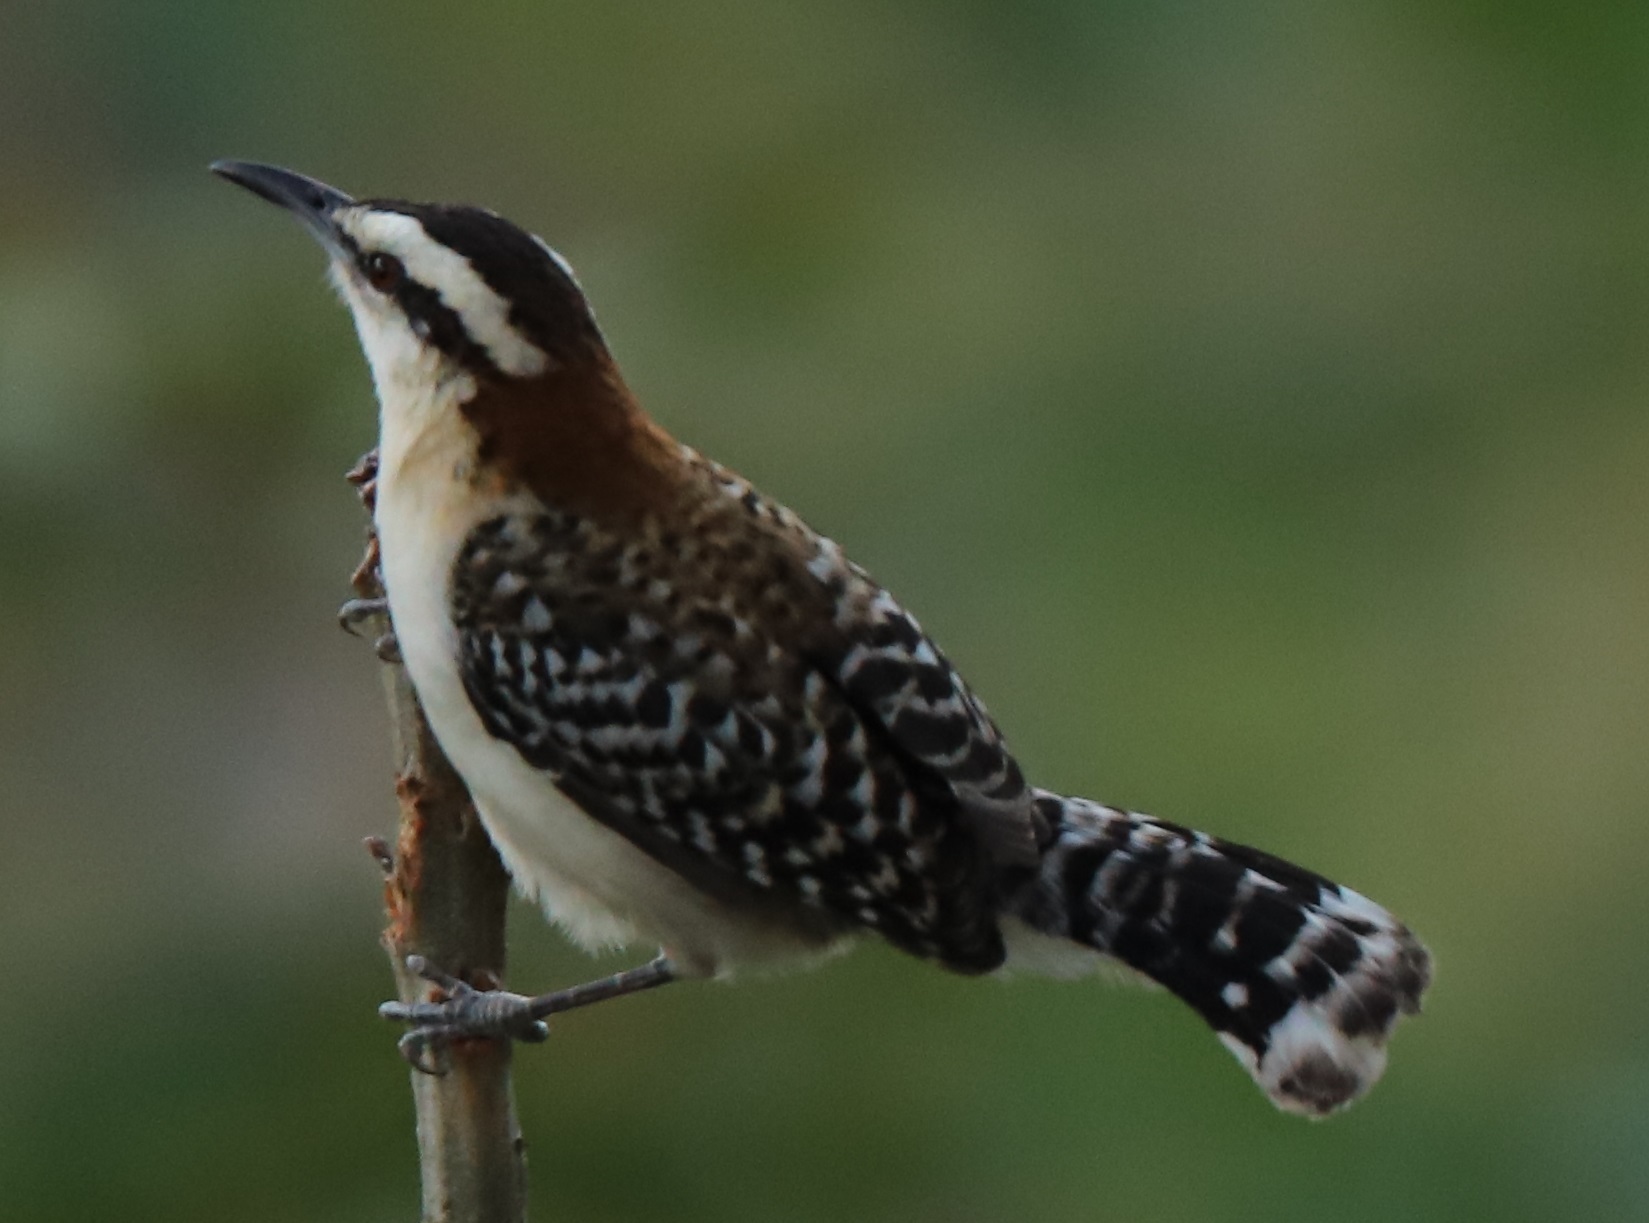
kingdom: Animalia
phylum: Chordata
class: Aves
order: Passeriformes
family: Troglodytidae
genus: Campylorhynchus
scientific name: Campylorhynchus rufinucha
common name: Rufous-naped wren
